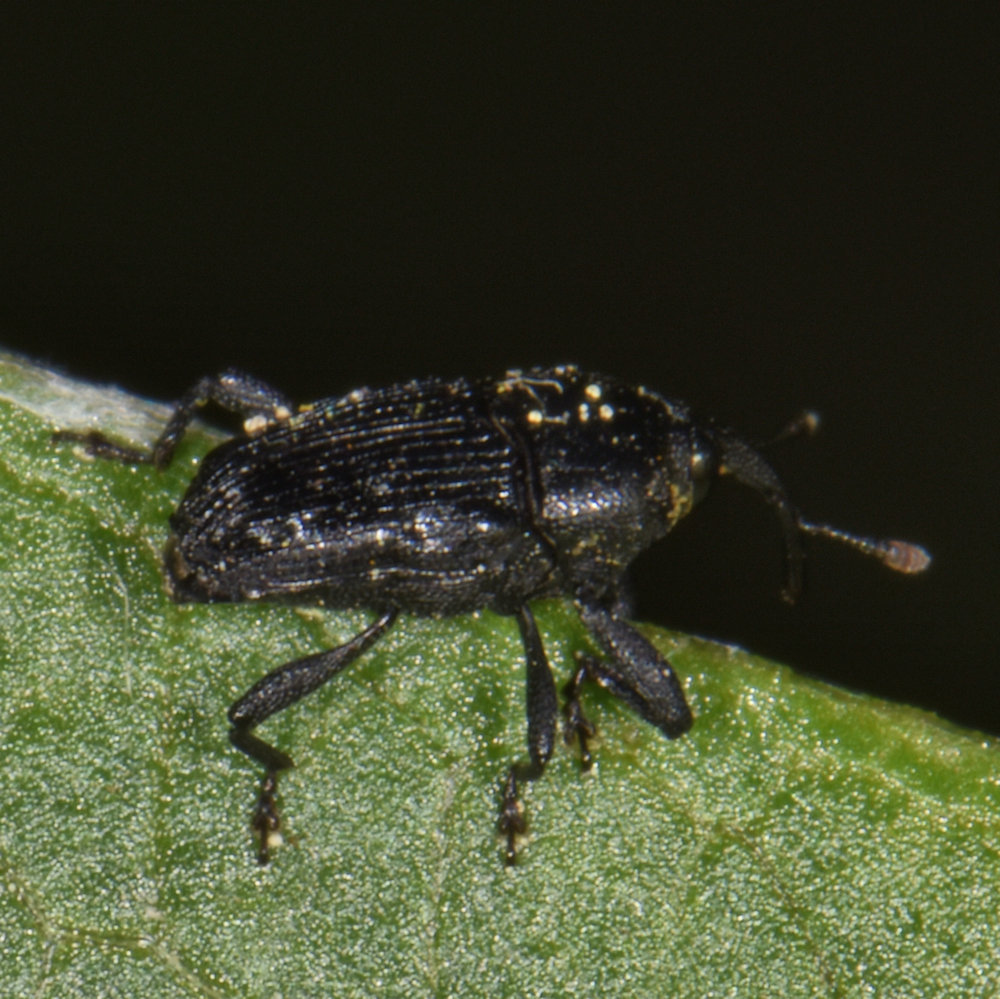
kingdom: Animalia
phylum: Arthropoda
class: Insecta
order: Coleoptera
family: Curculionidae
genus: Madarellus
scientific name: Madarellus undulatus
